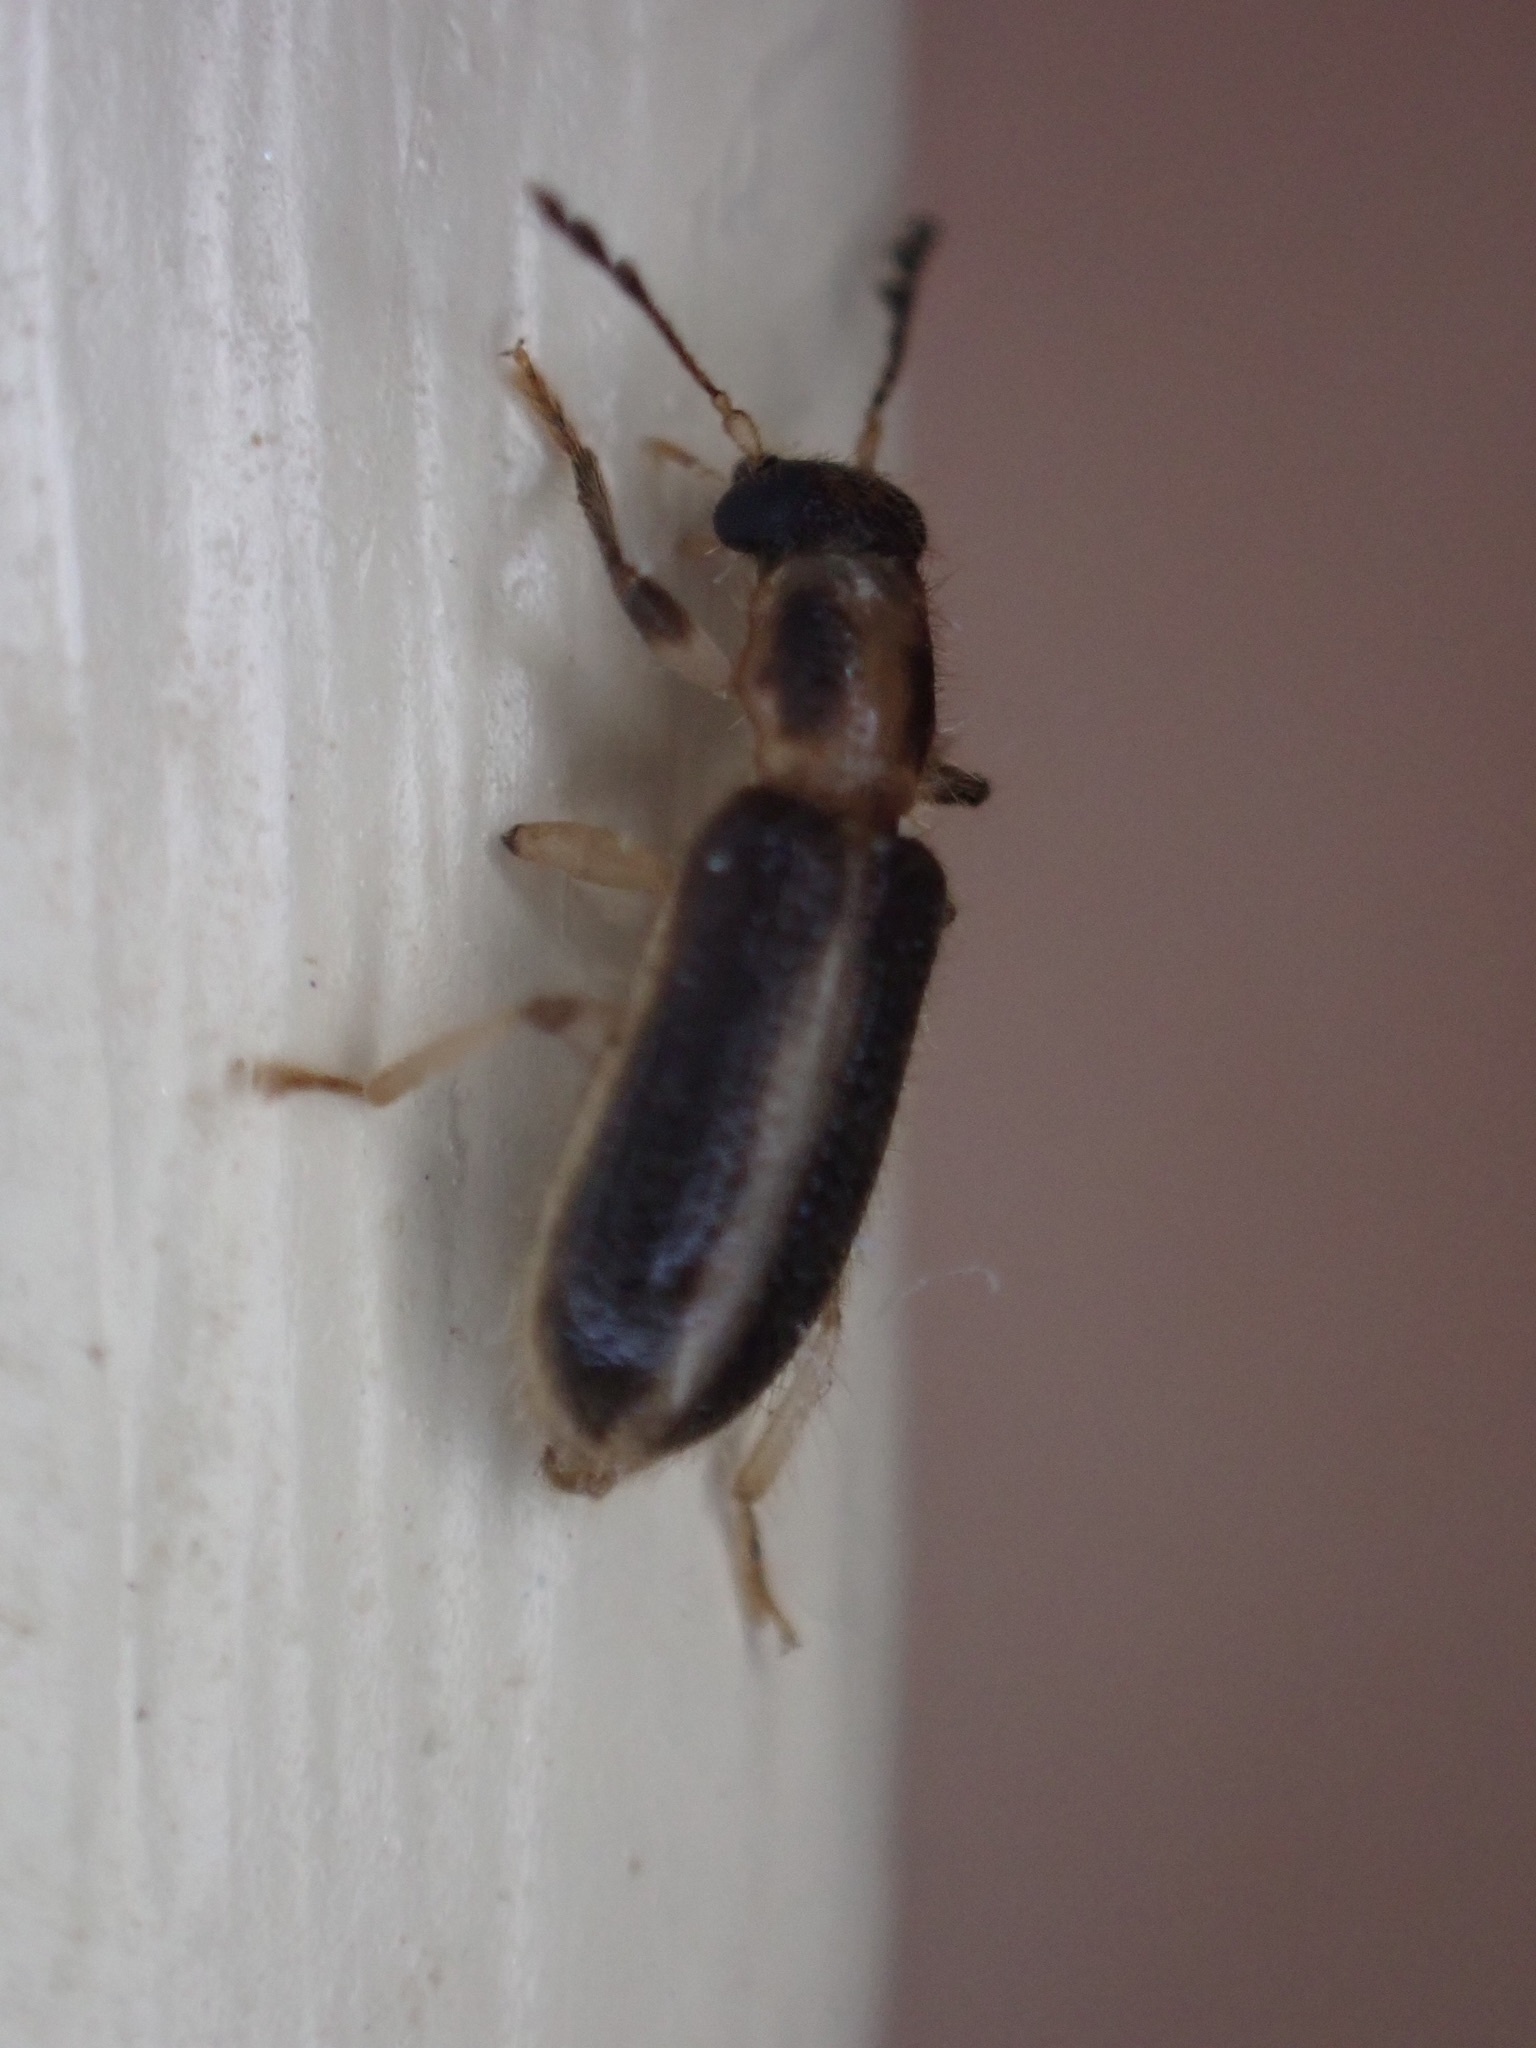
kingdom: Animalia
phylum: Arthropoda
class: Insecta
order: Coleoptera
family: Cleridae
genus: Cregya
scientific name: Cregya oculata
